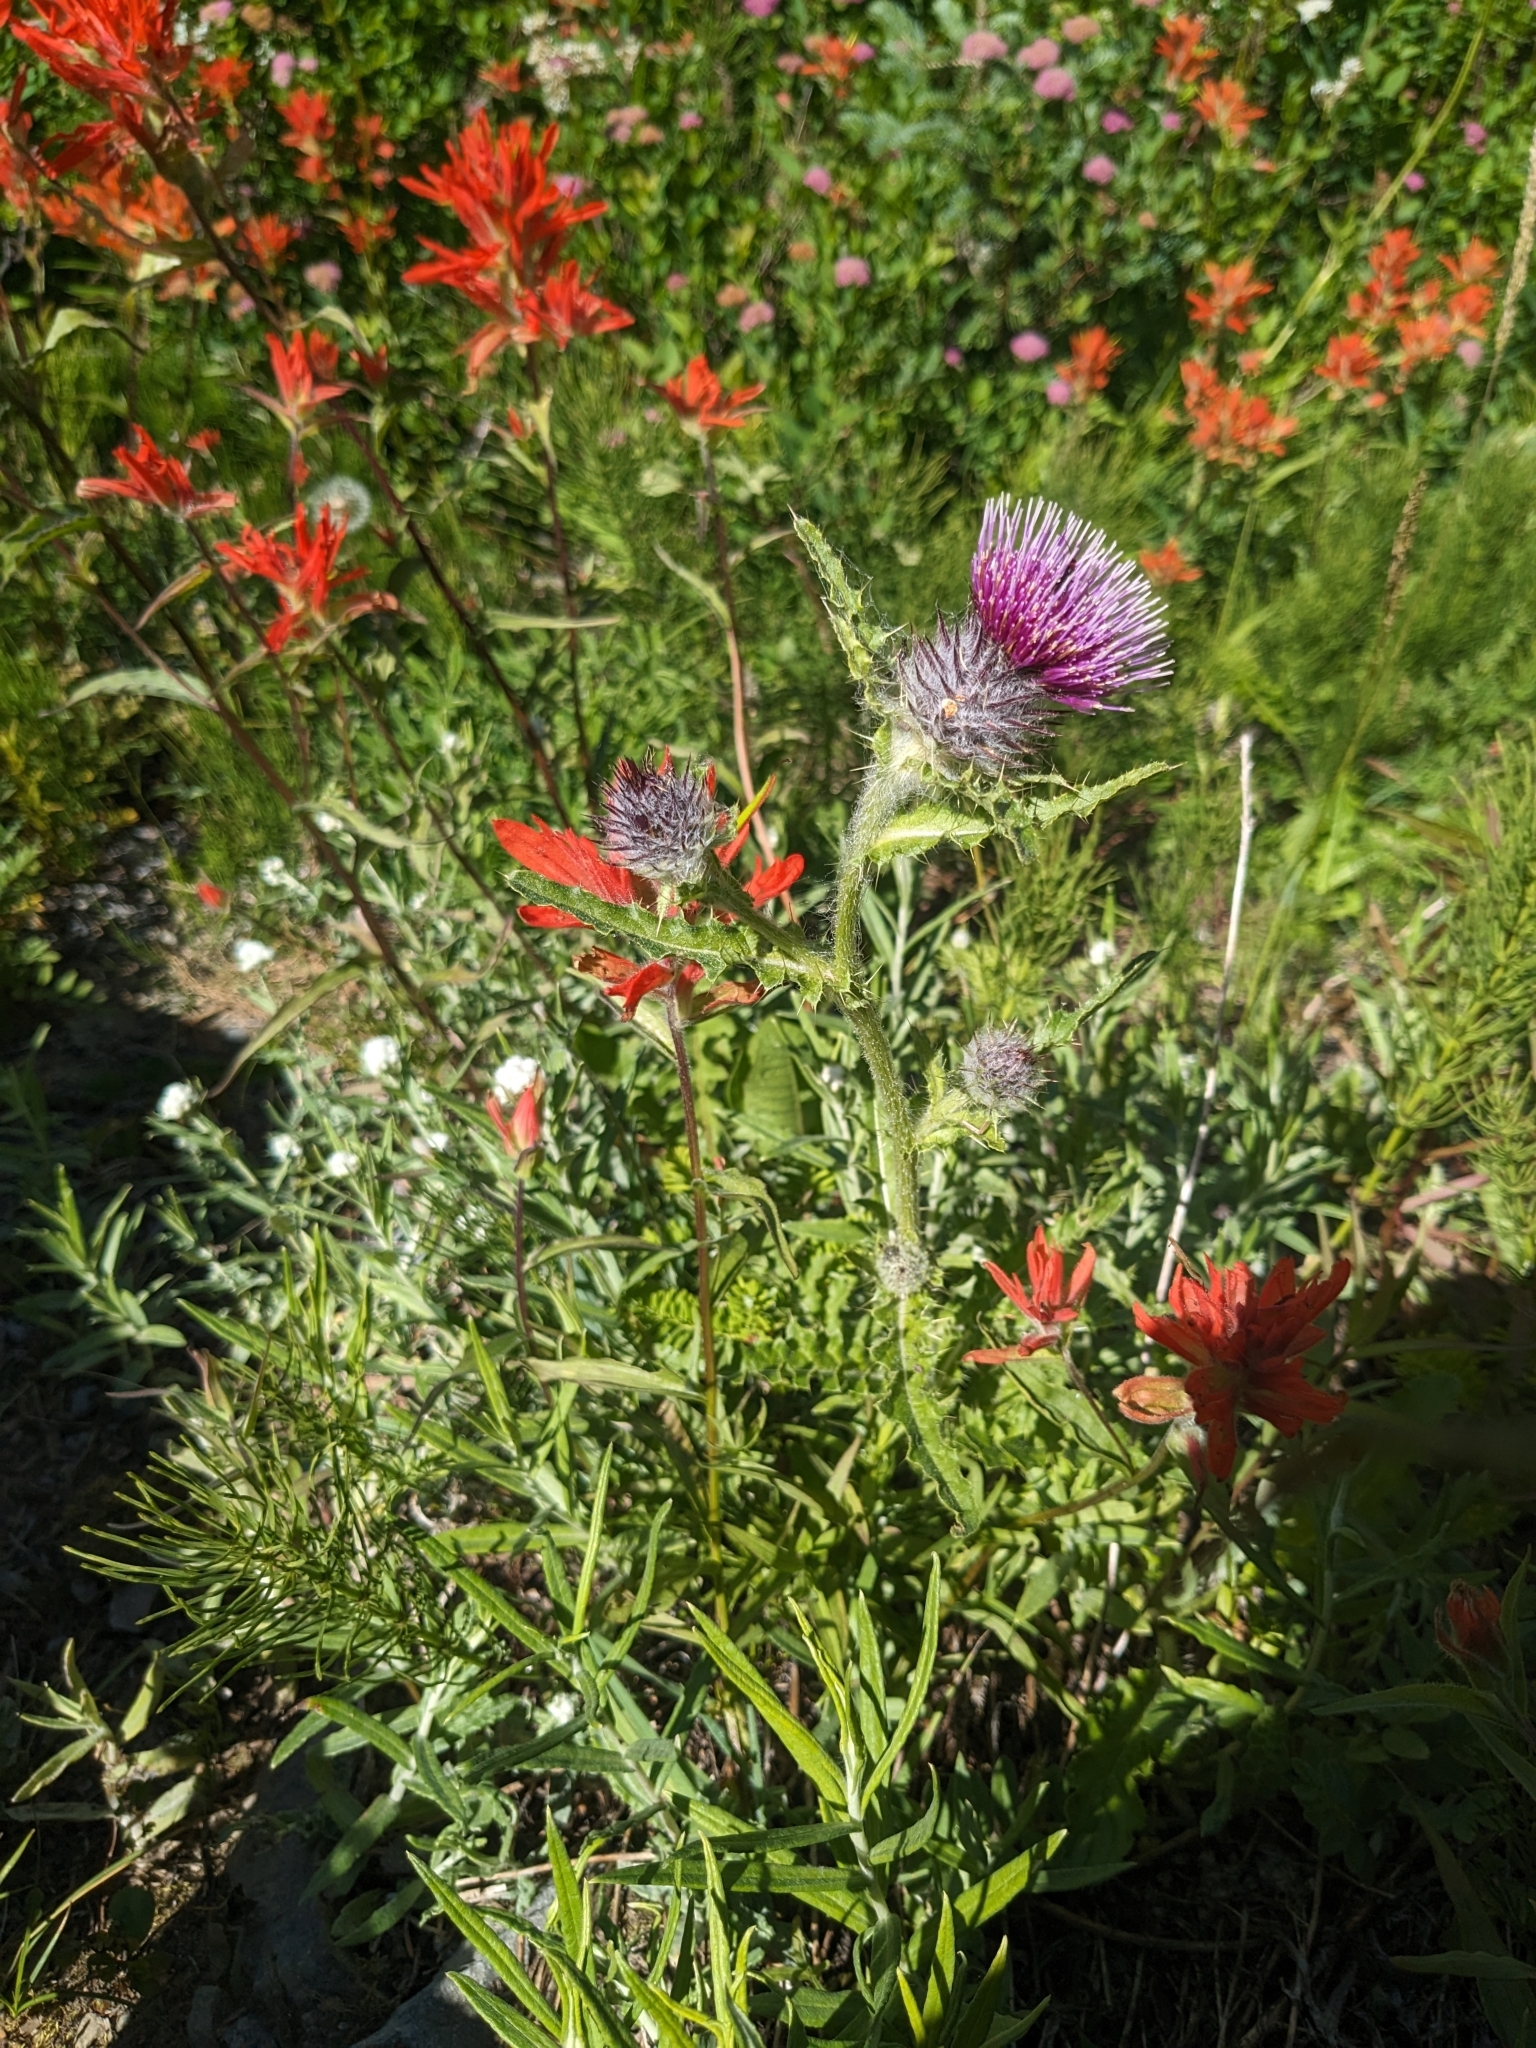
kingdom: Plantae
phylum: Tracheophyta
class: Magnoliopsida
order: Asterales
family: Asteraceae
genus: Cirsium
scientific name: Cirsium edule
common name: Indian thistle
